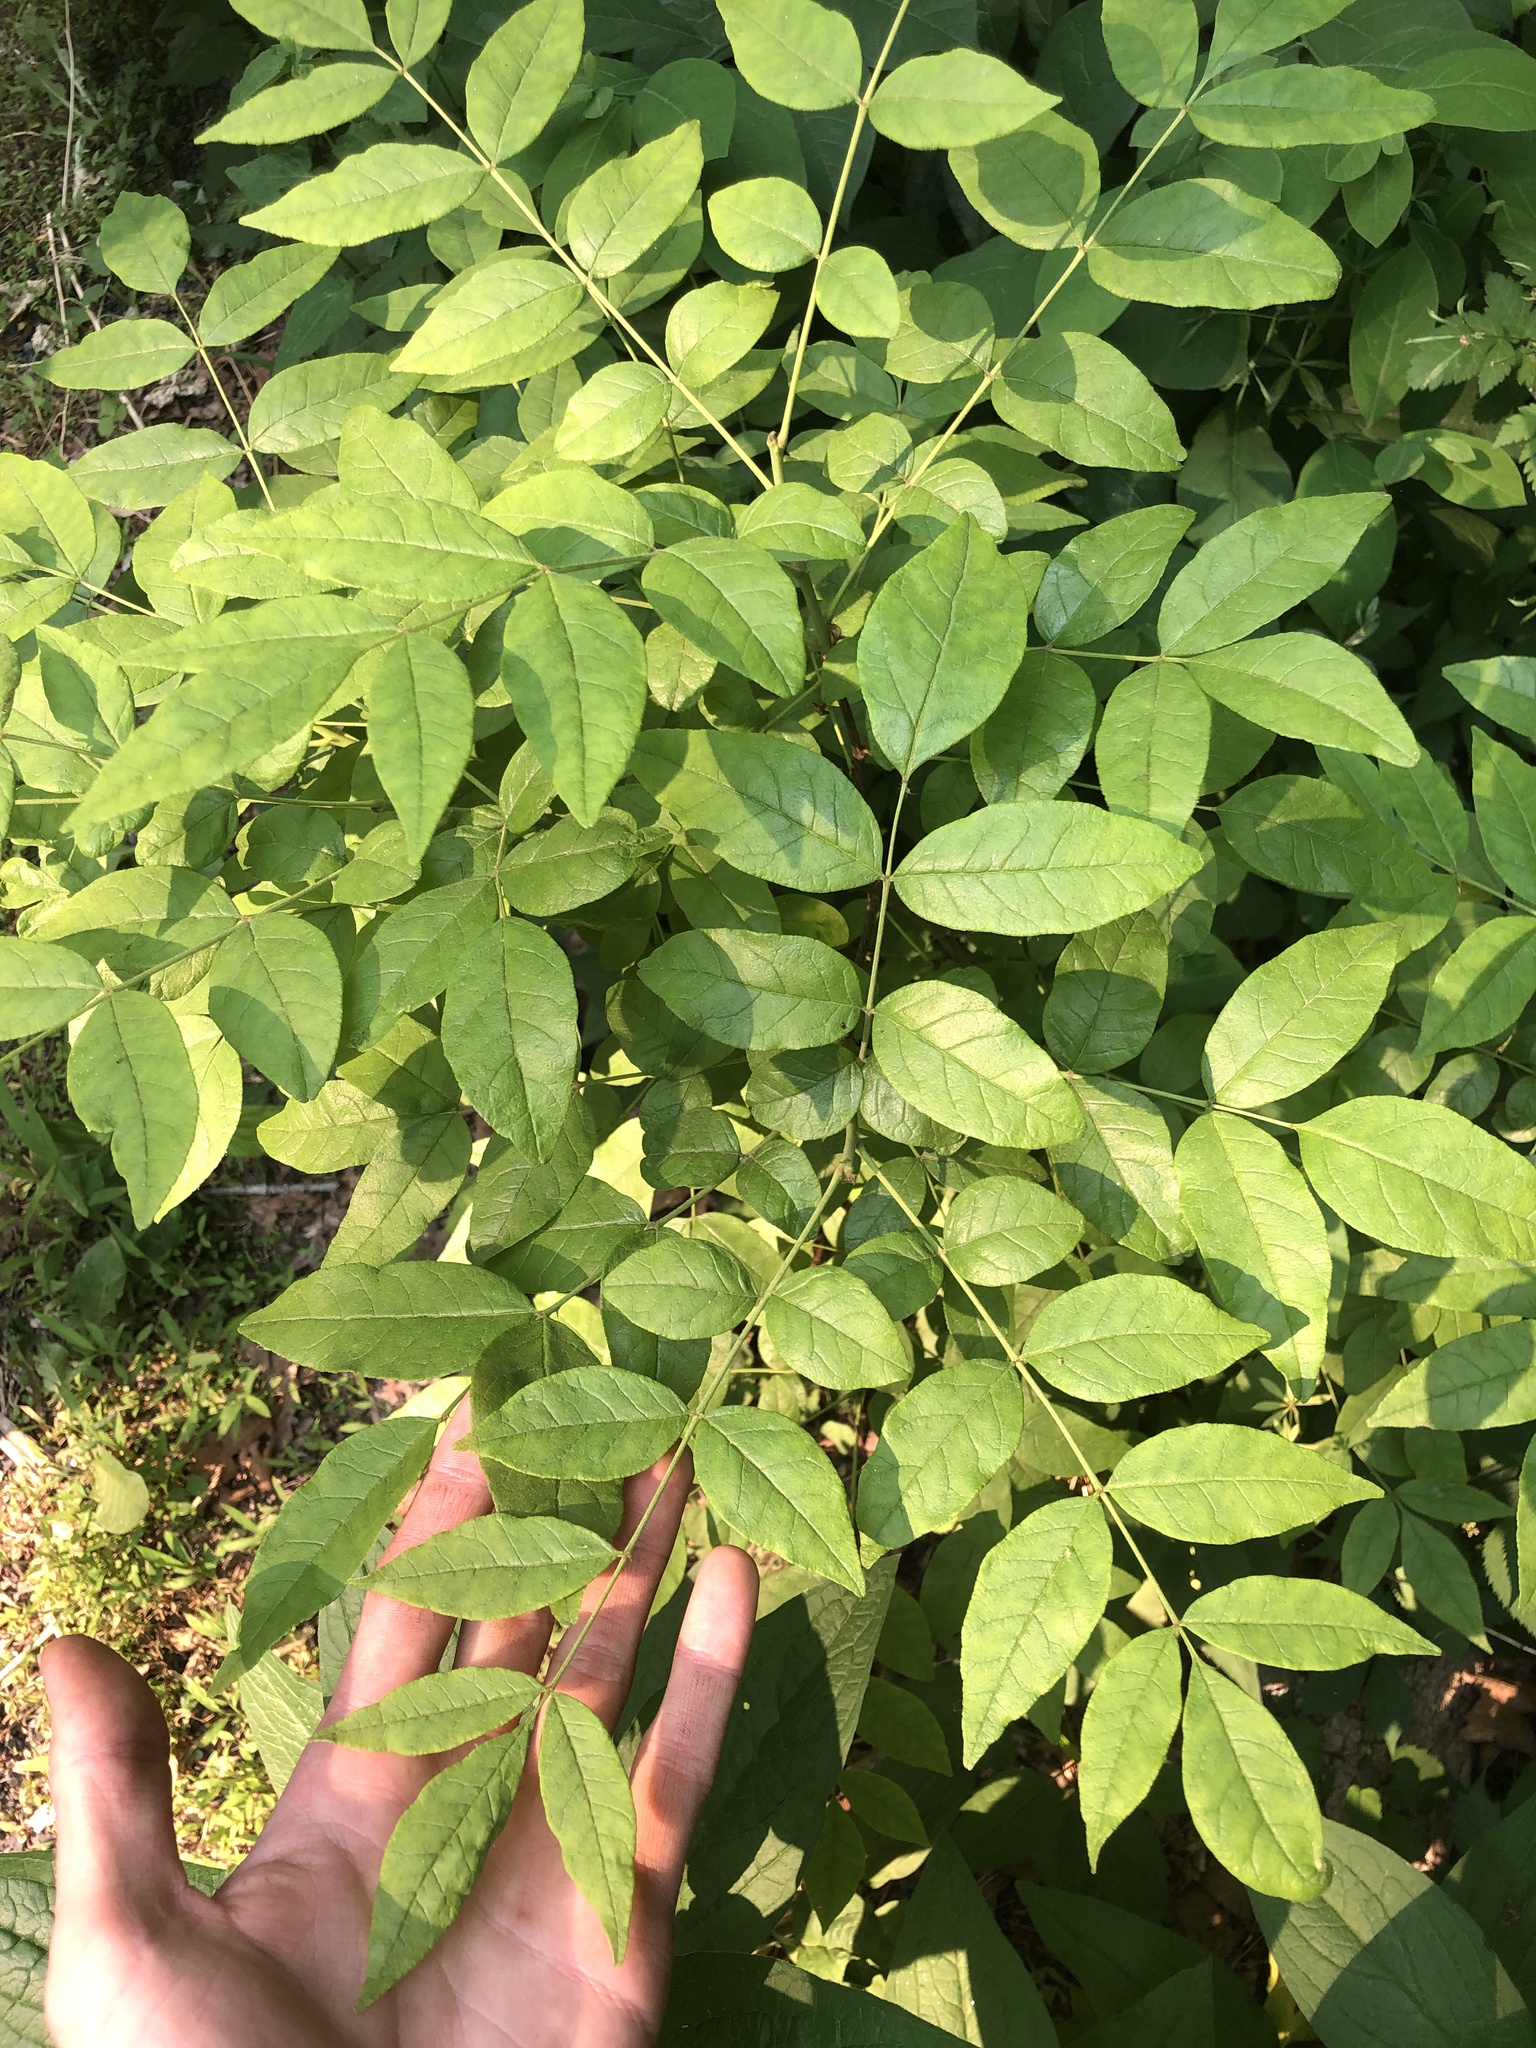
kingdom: Plantae
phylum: Tracheophyta
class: Magnoliopsida
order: Sapindales
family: Rutaceae
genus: Zanthoxylum
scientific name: Zanthoxylum americanum
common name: Northern prickly-ash
